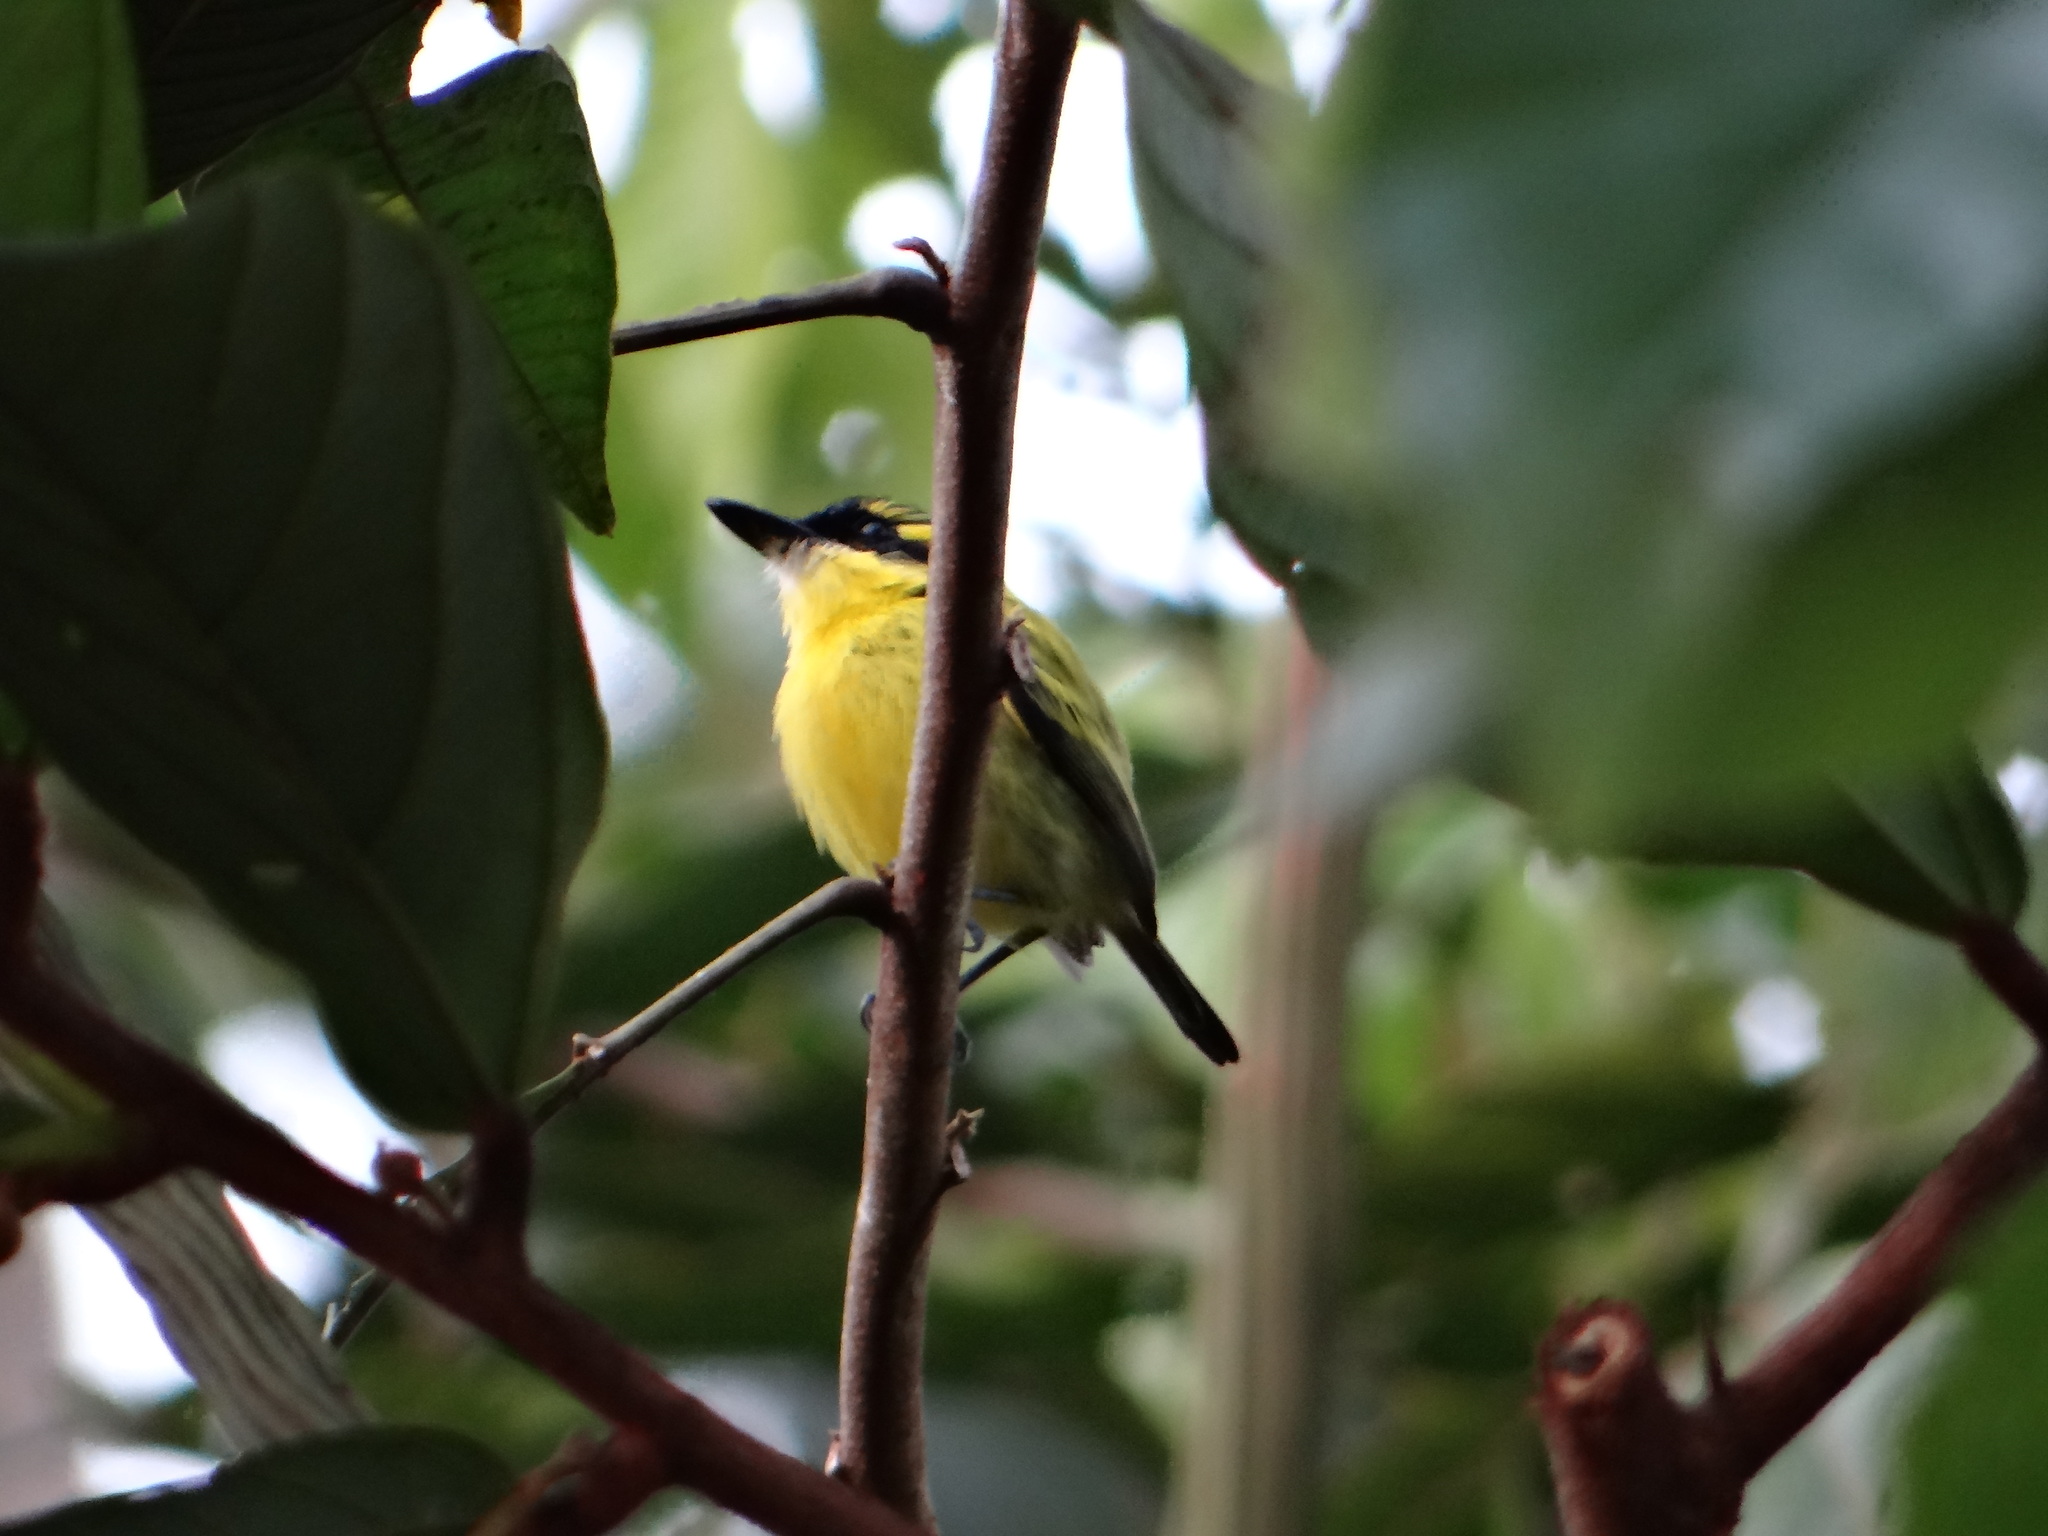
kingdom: Animalia
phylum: Chordata
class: Aves
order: Passeriformes
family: Tyrannidae
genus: Todirostrum
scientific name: Todirostrum chrysocrotaphum
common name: Yellow-browed tody-flycatcher
